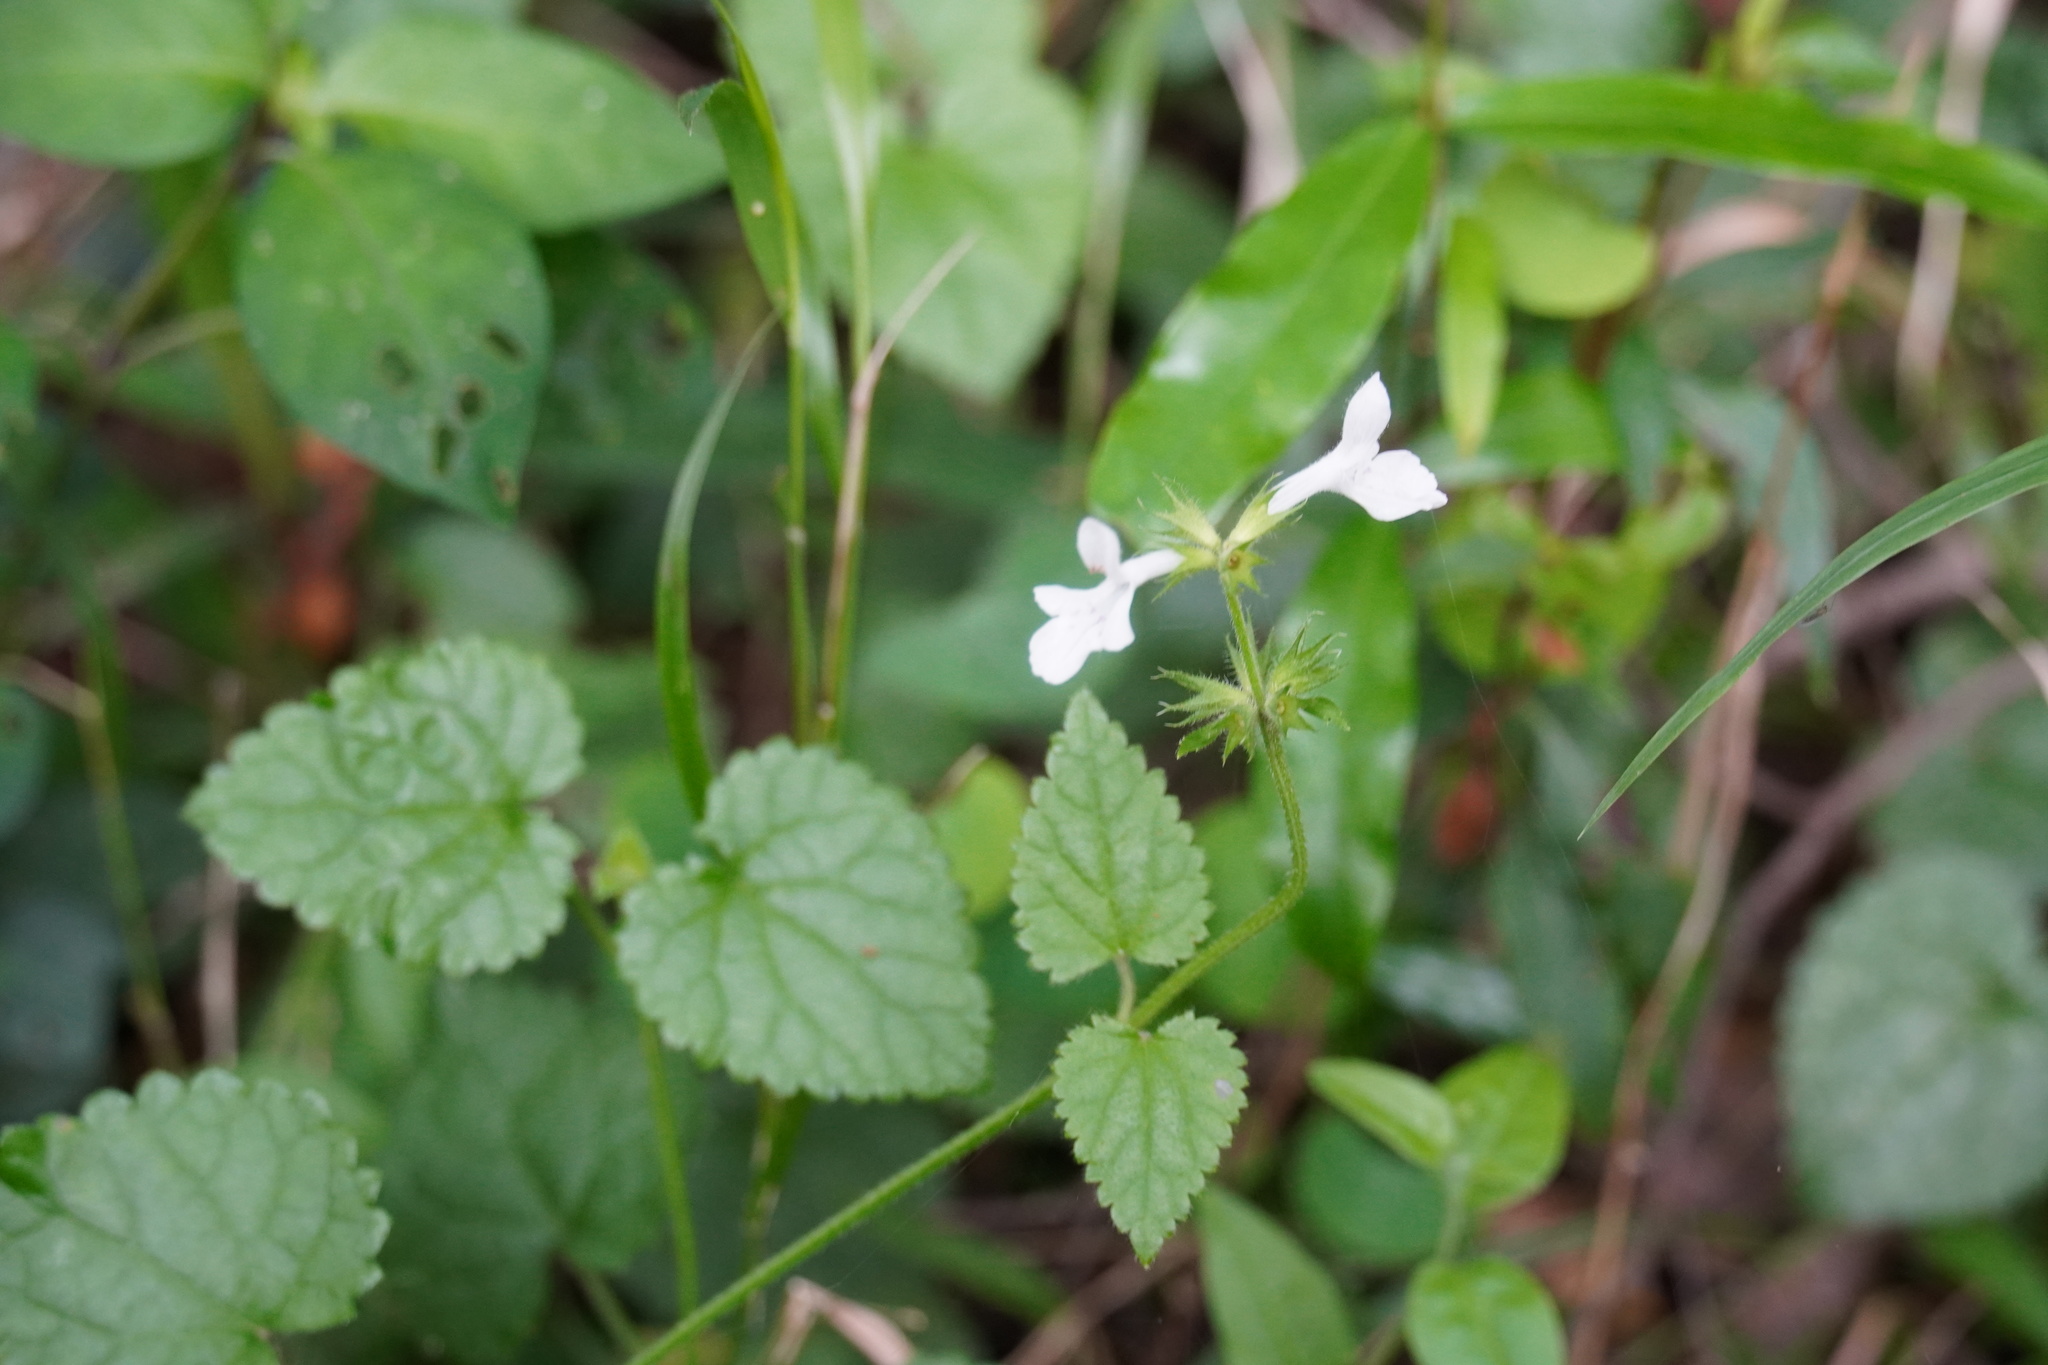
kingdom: Plantae
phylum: Tracheophyta
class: Magnoliopsida
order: Lamiales
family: Lamiaceae
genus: Stachys
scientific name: Stachys aethiopica
